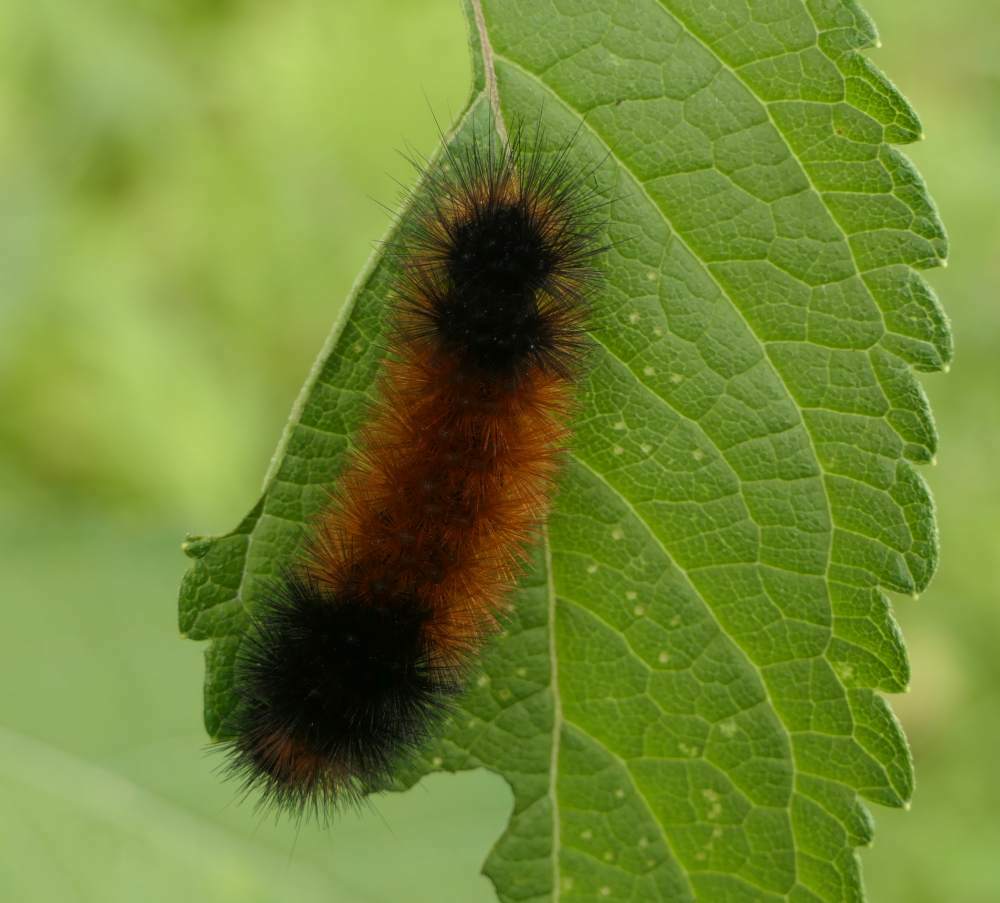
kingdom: Animalia
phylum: Arthropoda
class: Insecta
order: Lepidoptera
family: Erebidae
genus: Pyrrharctia
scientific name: Pyrrharctia isabella
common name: Isabella tiger moth
